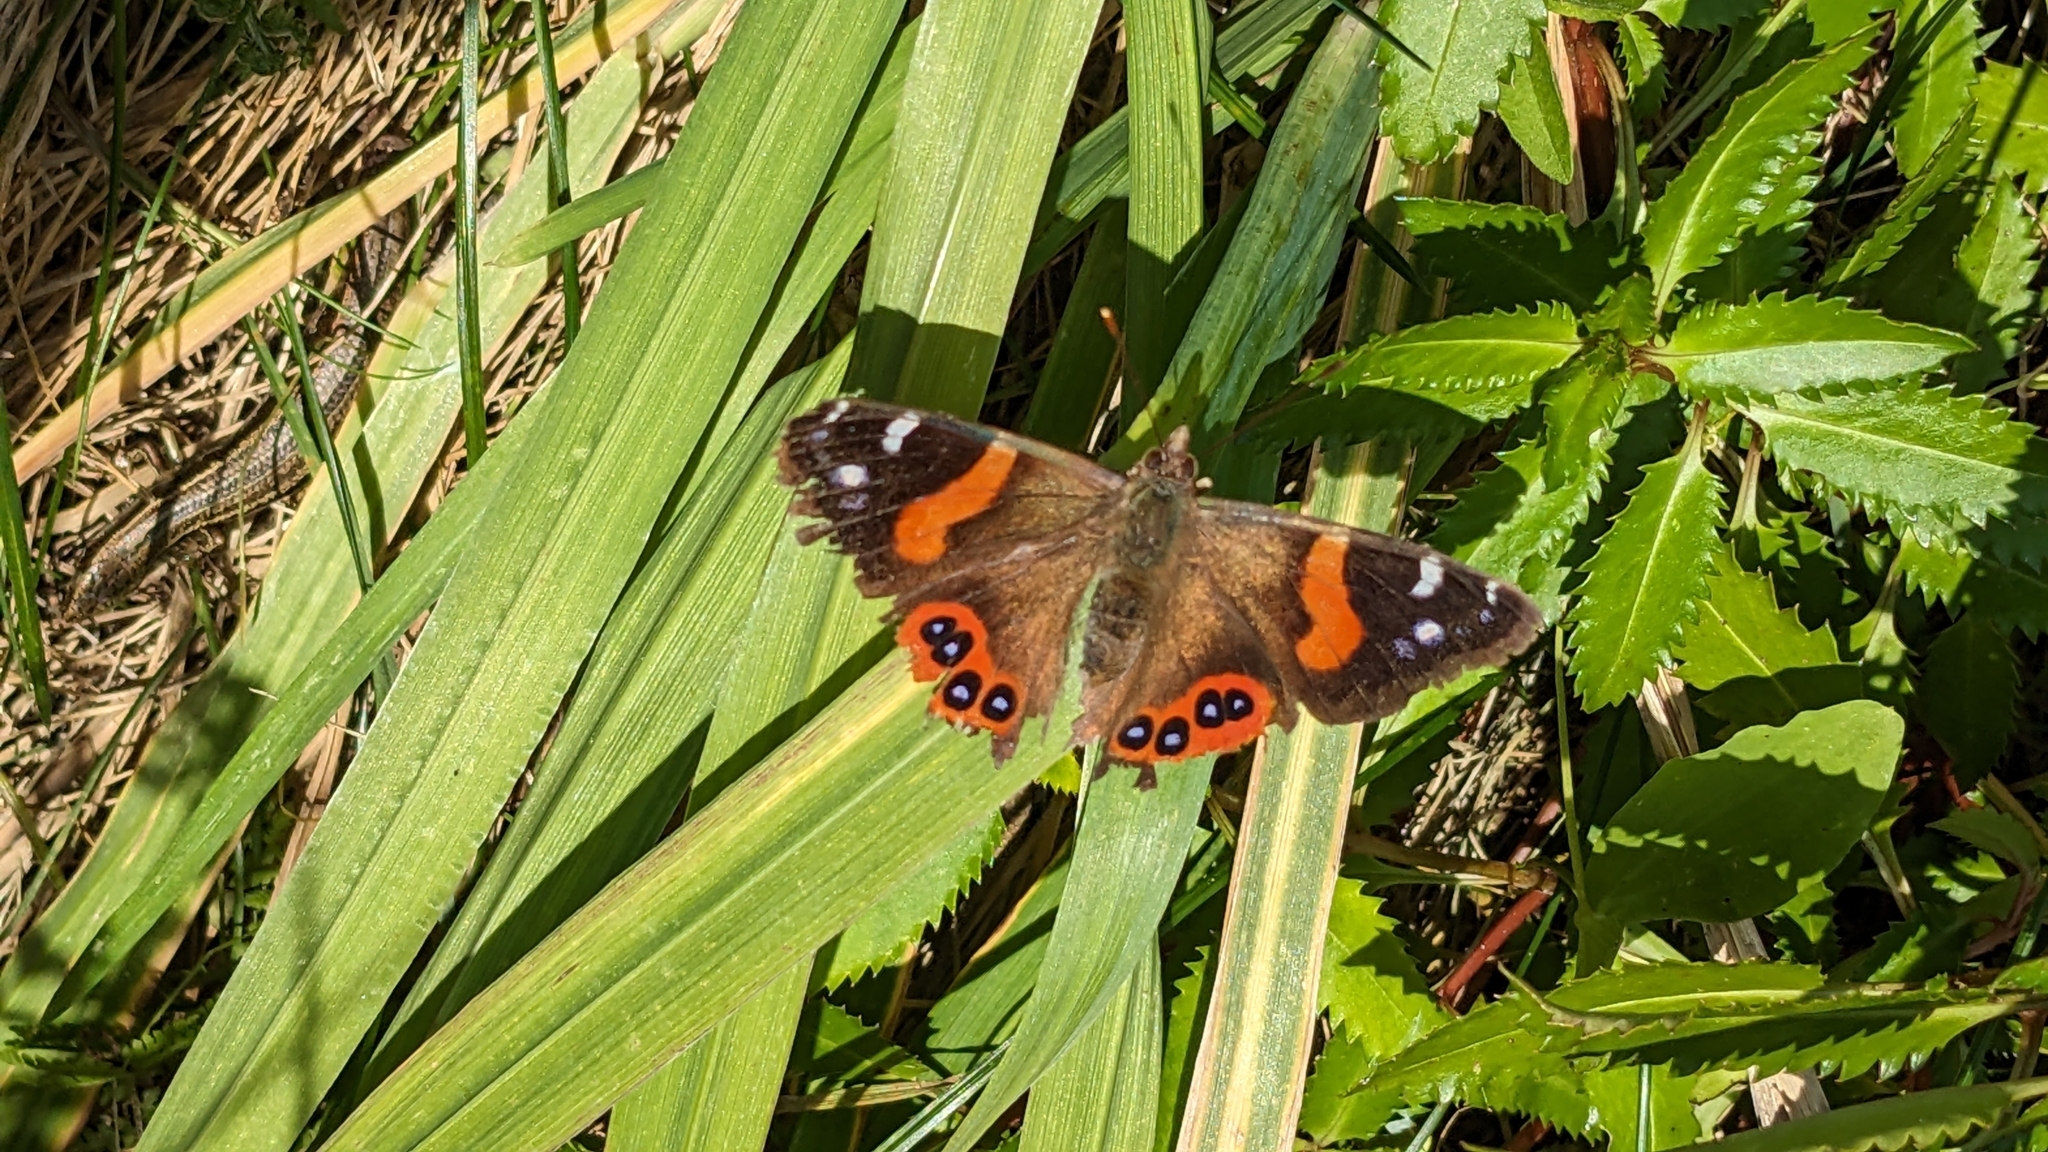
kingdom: Animalia
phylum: Arthropoda
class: Insecta
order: Lepidoptera
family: Nymphalidae
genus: Vanessa
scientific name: Vanessa gonerilla
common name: New zealand red admiral
